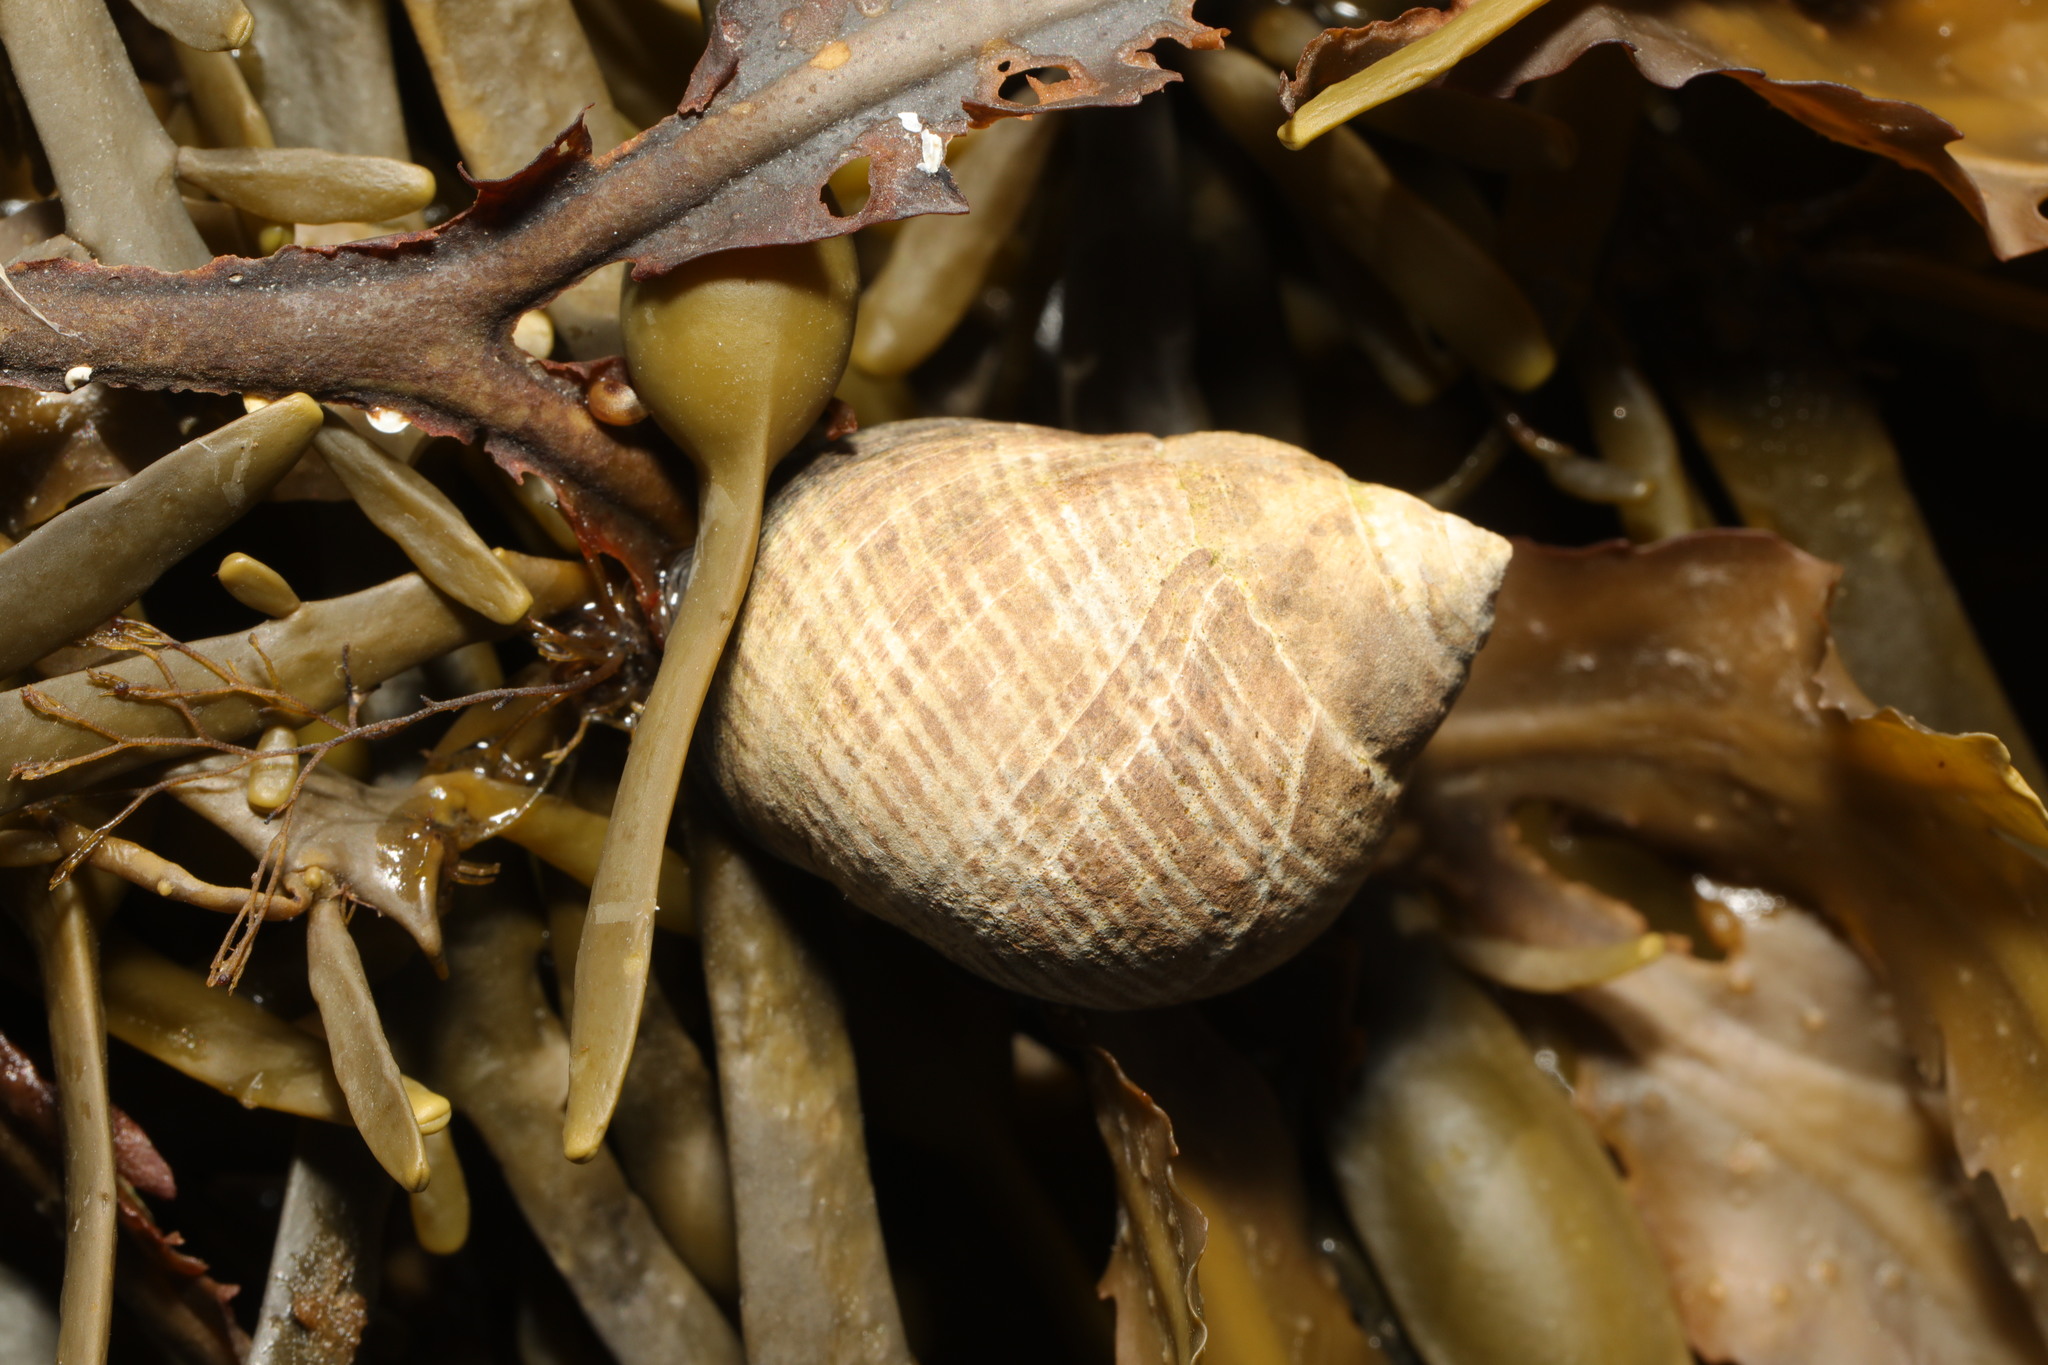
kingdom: Animalia
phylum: Mollusca
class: Gastropoda
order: Littorinimorpha
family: Littorinidae
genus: Littorina
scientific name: Littorina littorea
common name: Common periwinkle
